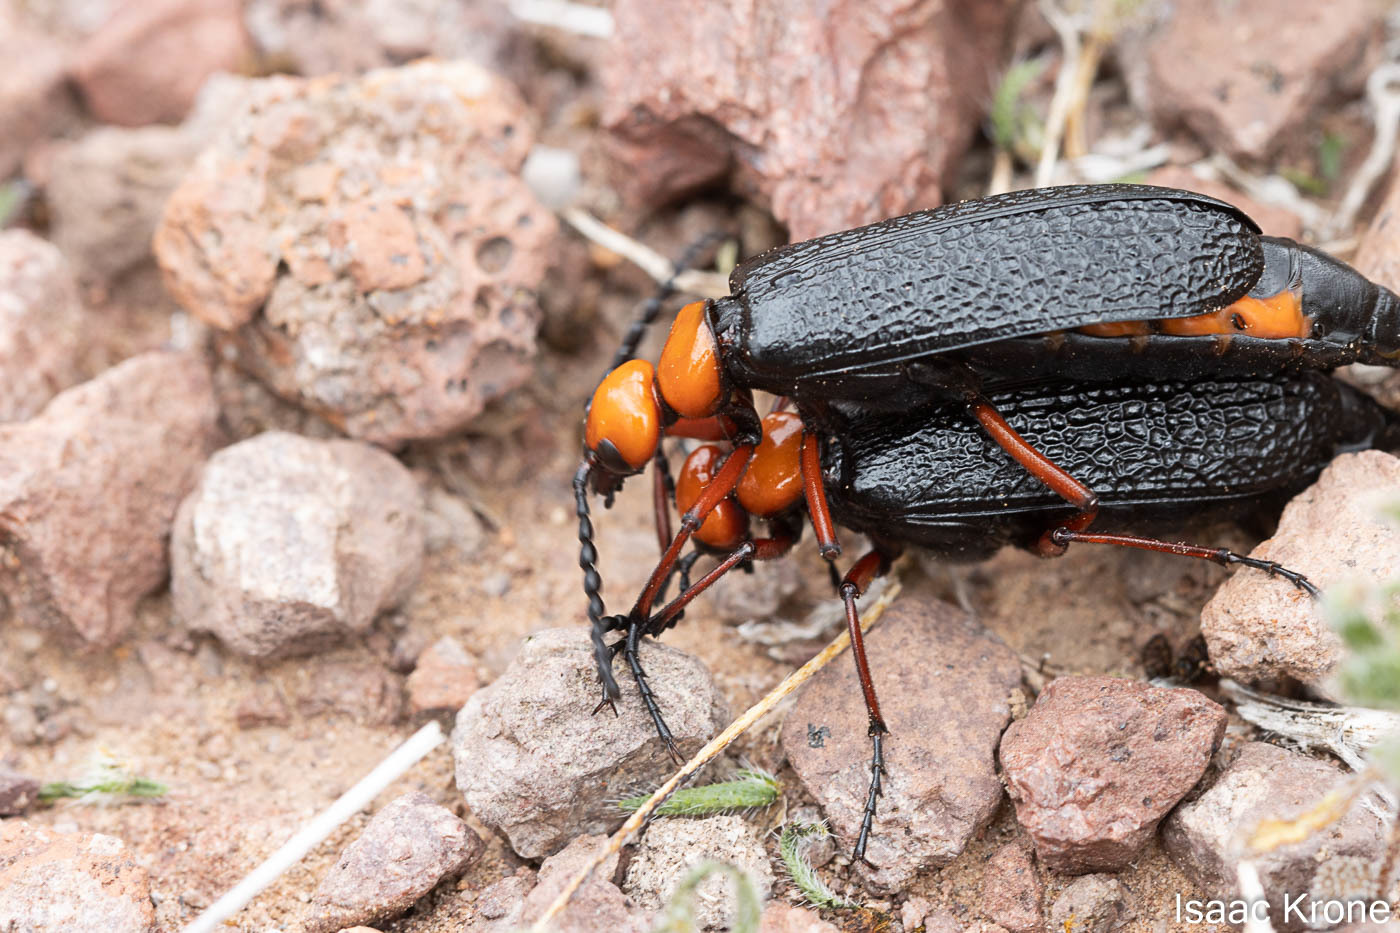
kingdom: Animalia
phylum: Arthropoda
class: Insecta
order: Coleoptera
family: Meloidae
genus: Lytta
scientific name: Lytta magister
